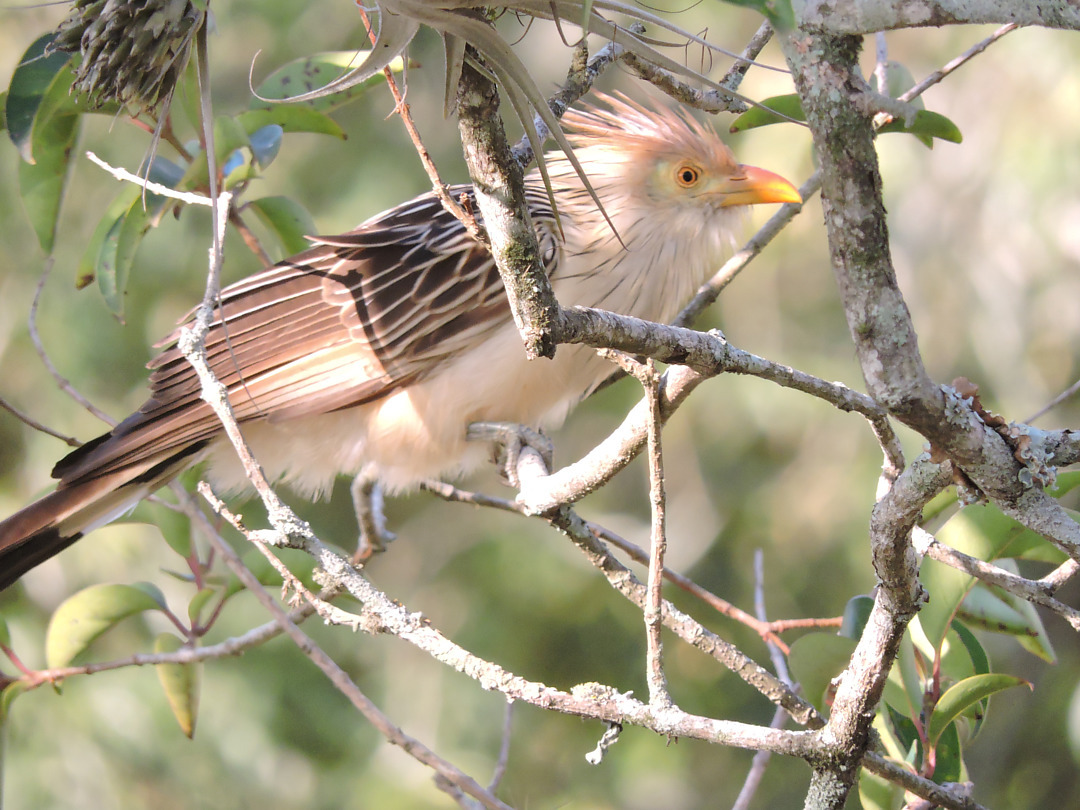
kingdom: Animalia
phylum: Chordata
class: Aves
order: Cuculiformes
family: Cuculidae
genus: Guira
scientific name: Guira guira
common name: Guira cuckoo
